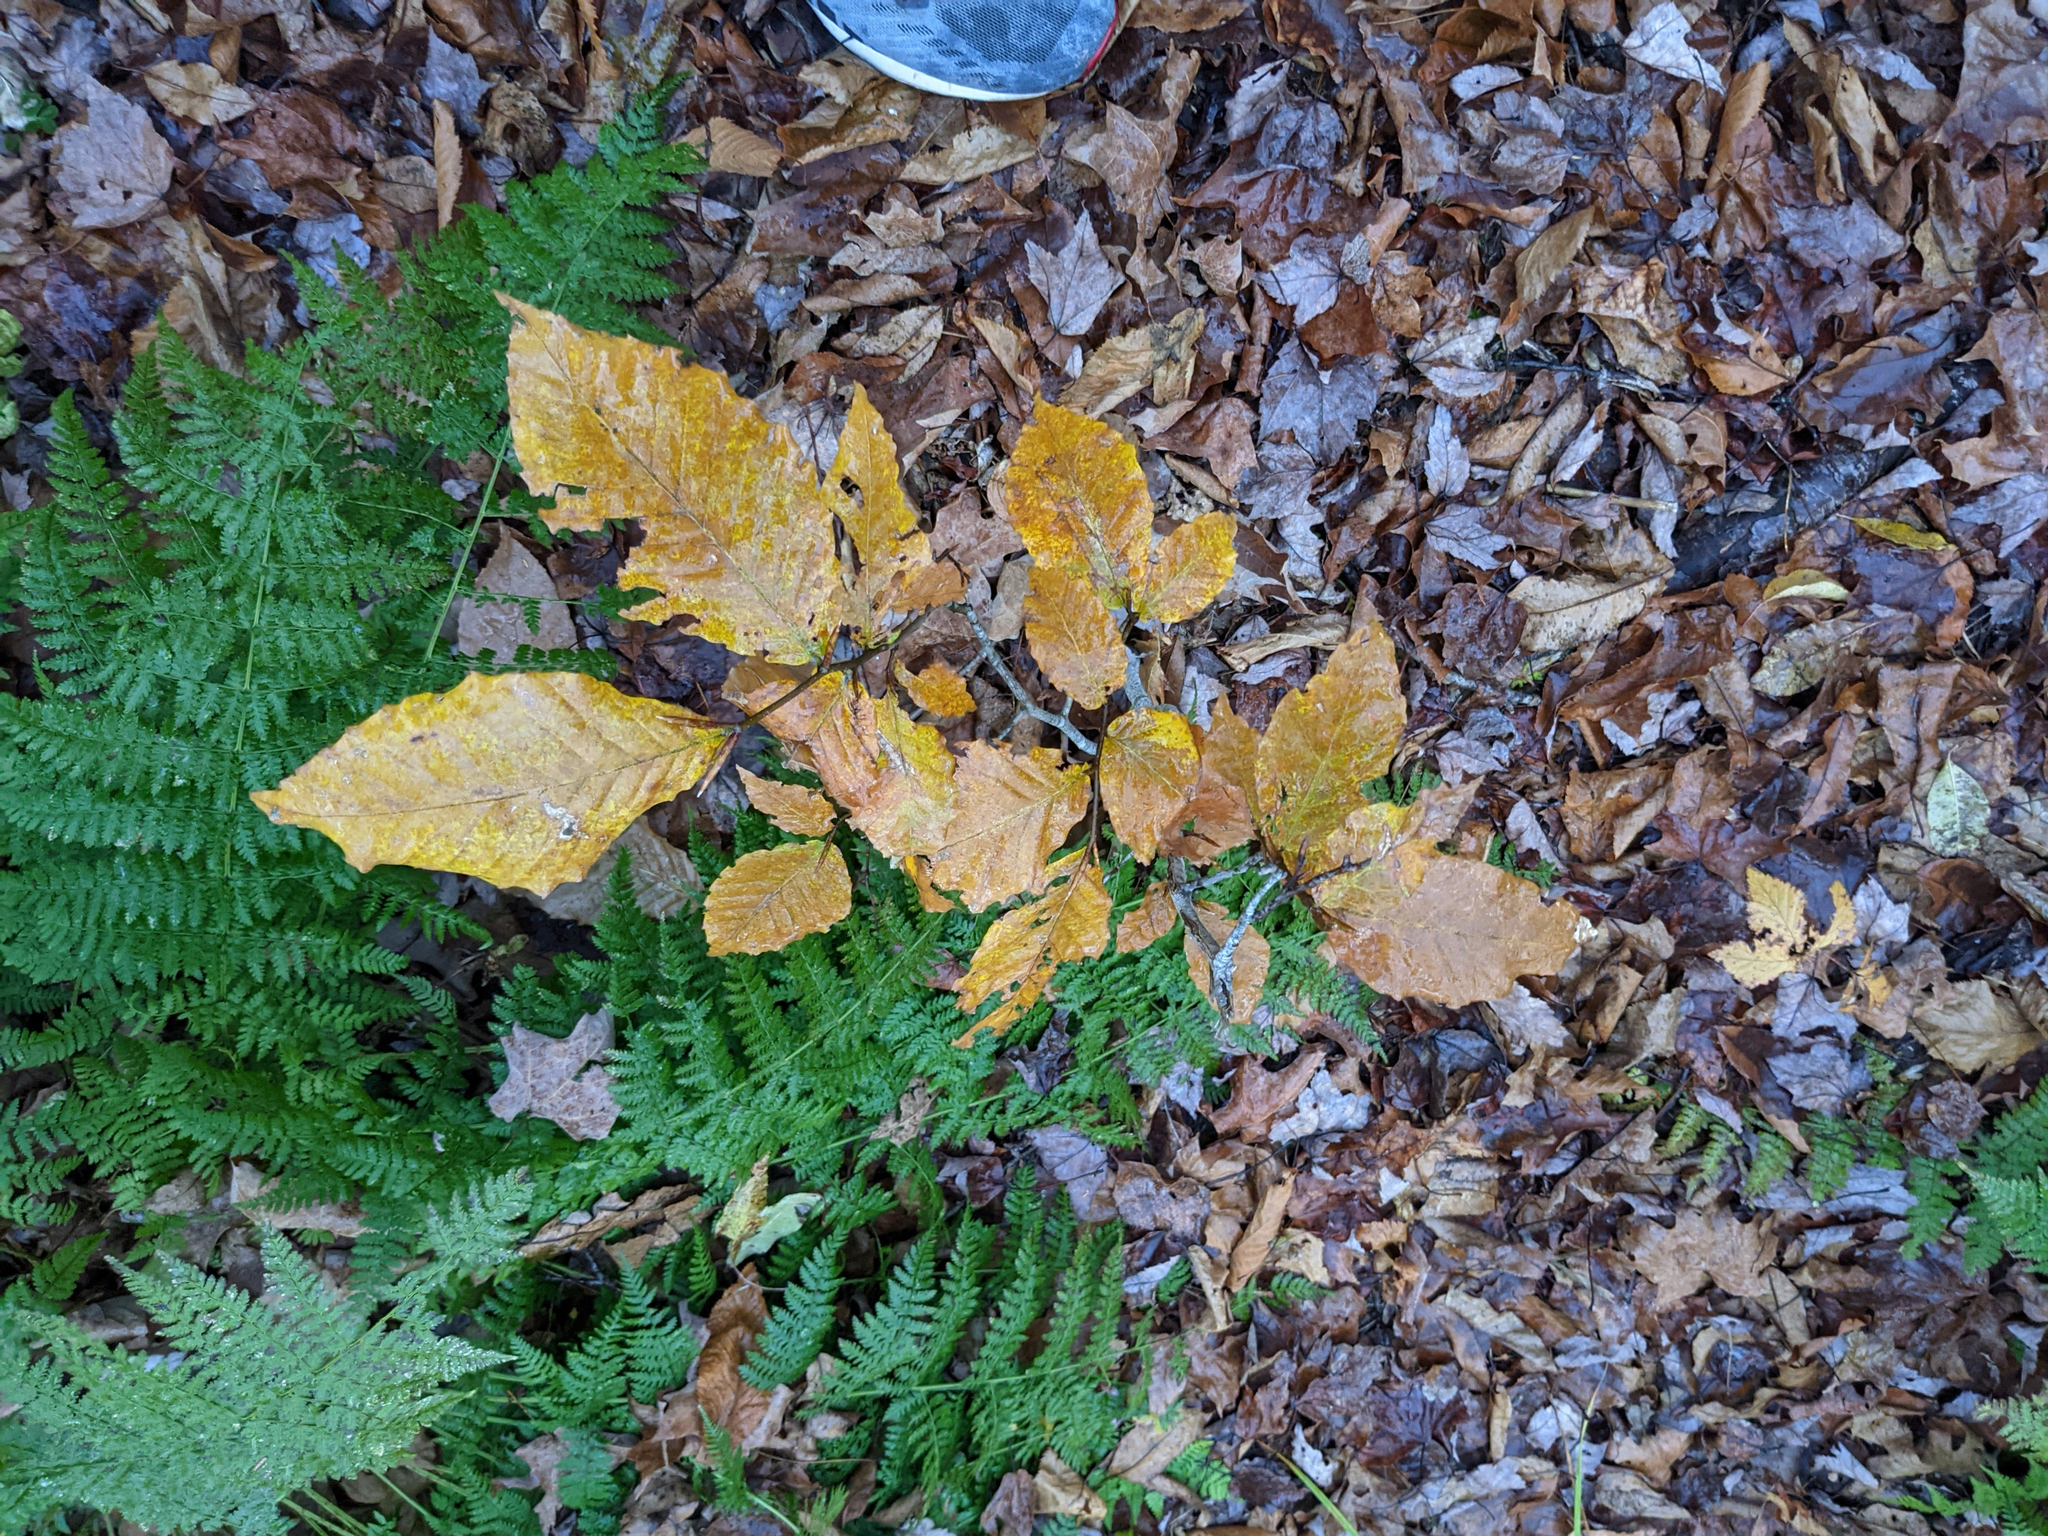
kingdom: Plantae
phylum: Tracheophyta
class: Magnoliopsida
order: Fagales
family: Fagaceae
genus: Fagus
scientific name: Fagus grandifolia
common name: American beech
